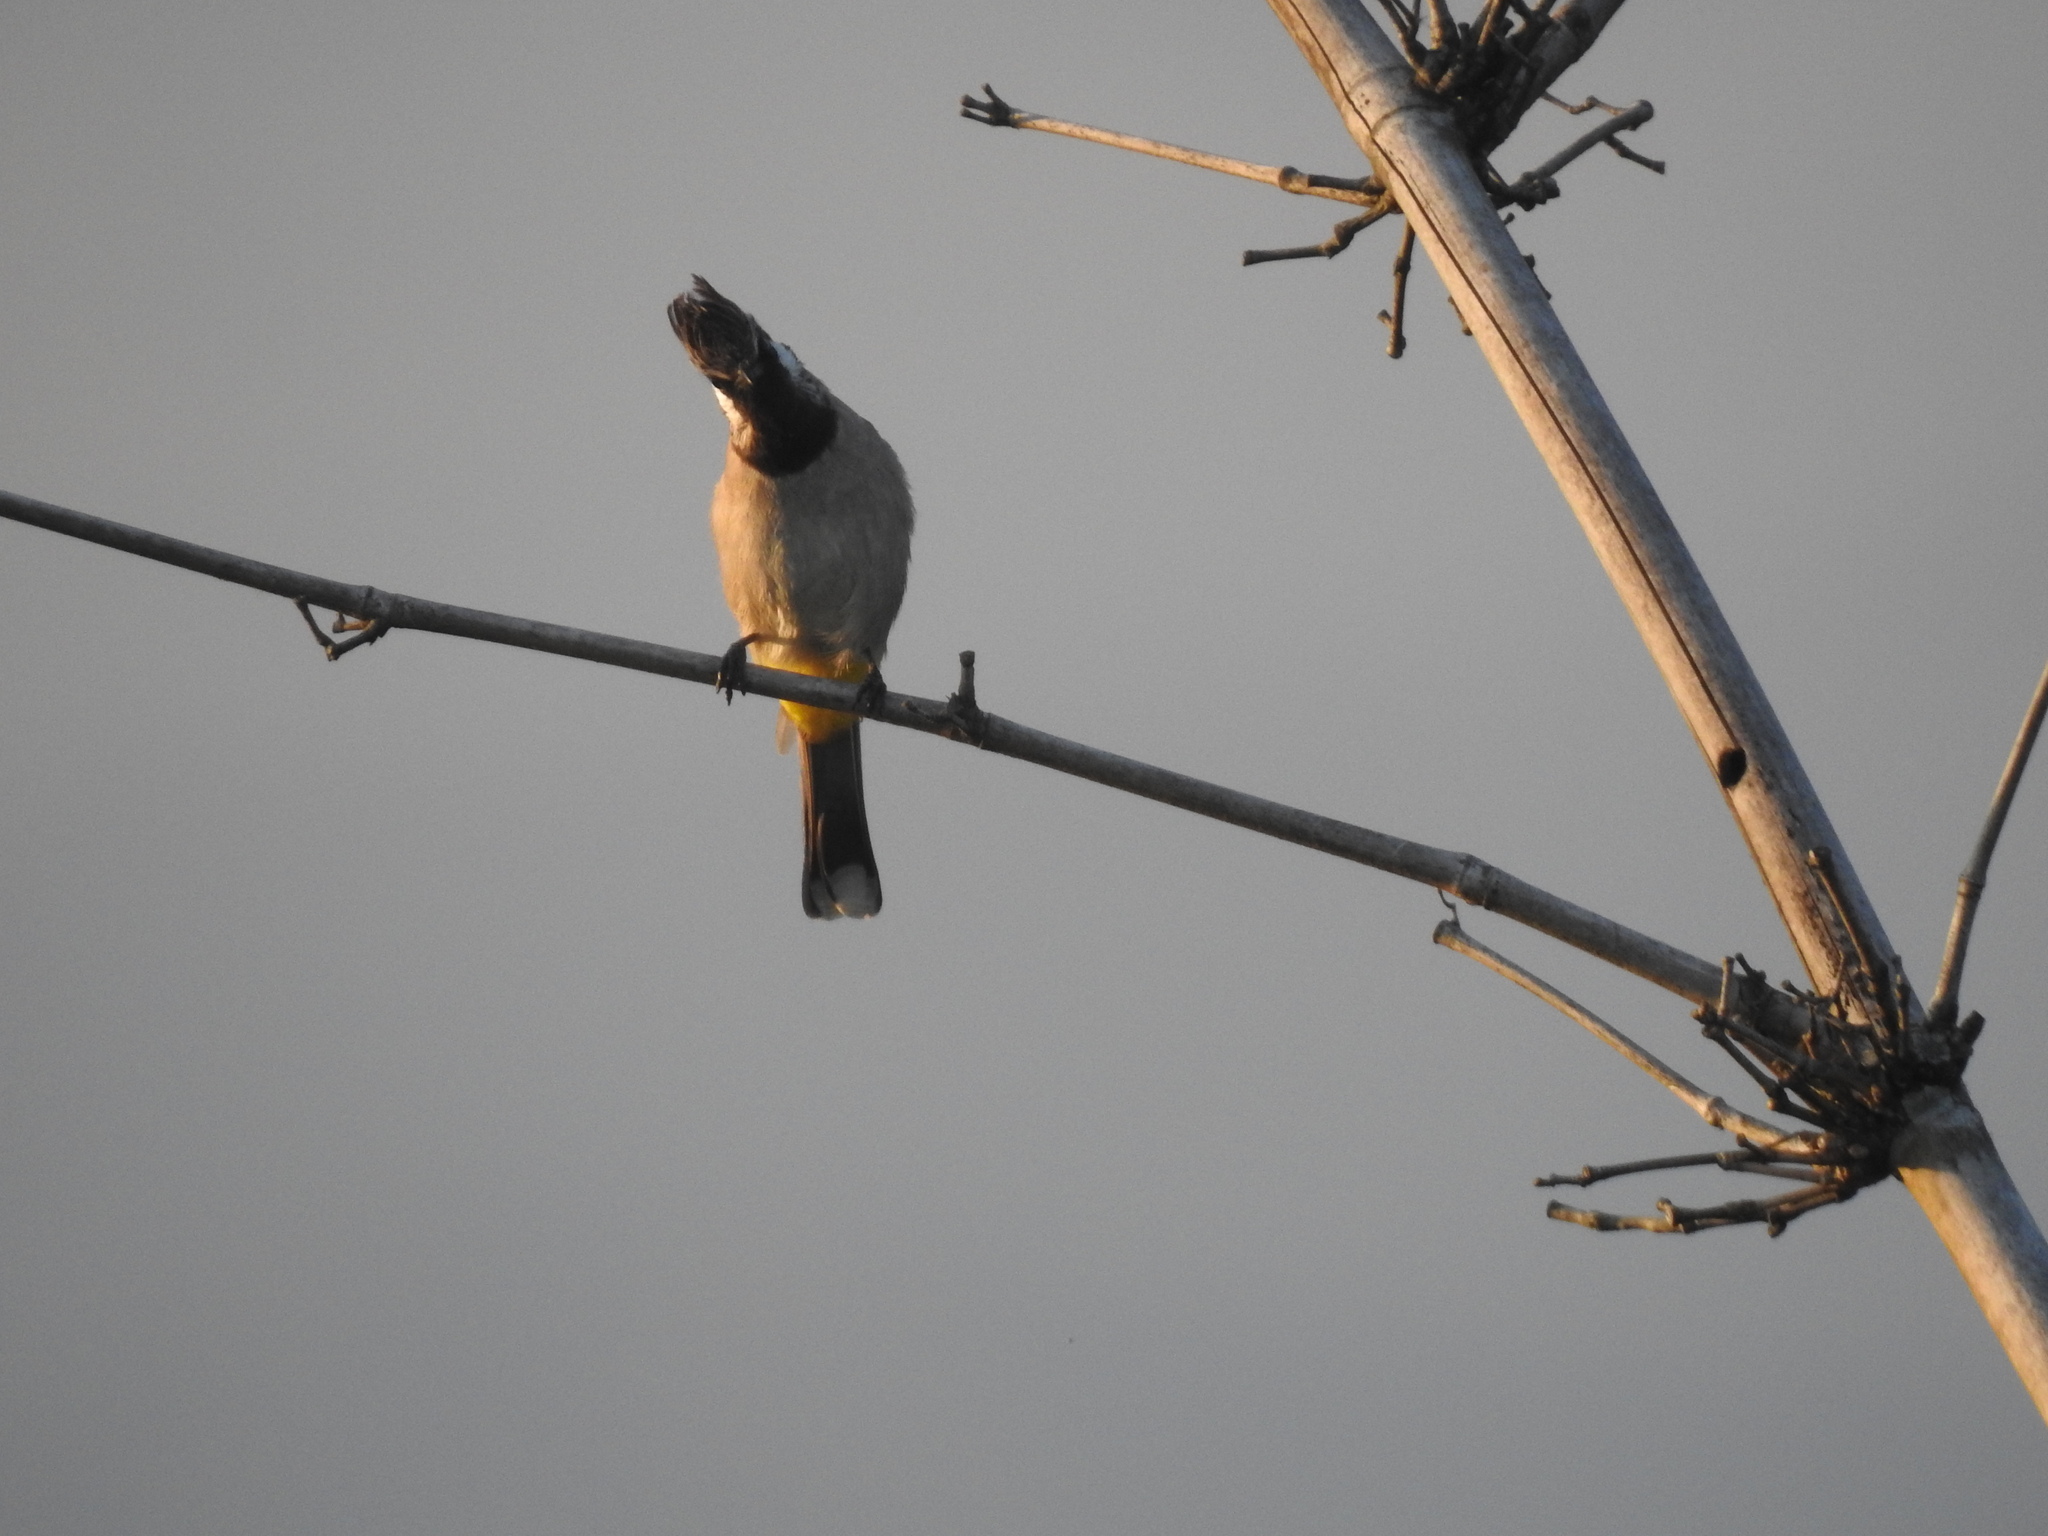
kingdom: Animalia
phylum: Chordata
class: Aves
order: Passeriformes
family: Pycnonotidae
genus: Pycnonotus
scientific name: Pycnonotus leucogenys
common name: Himalayan bulbul
